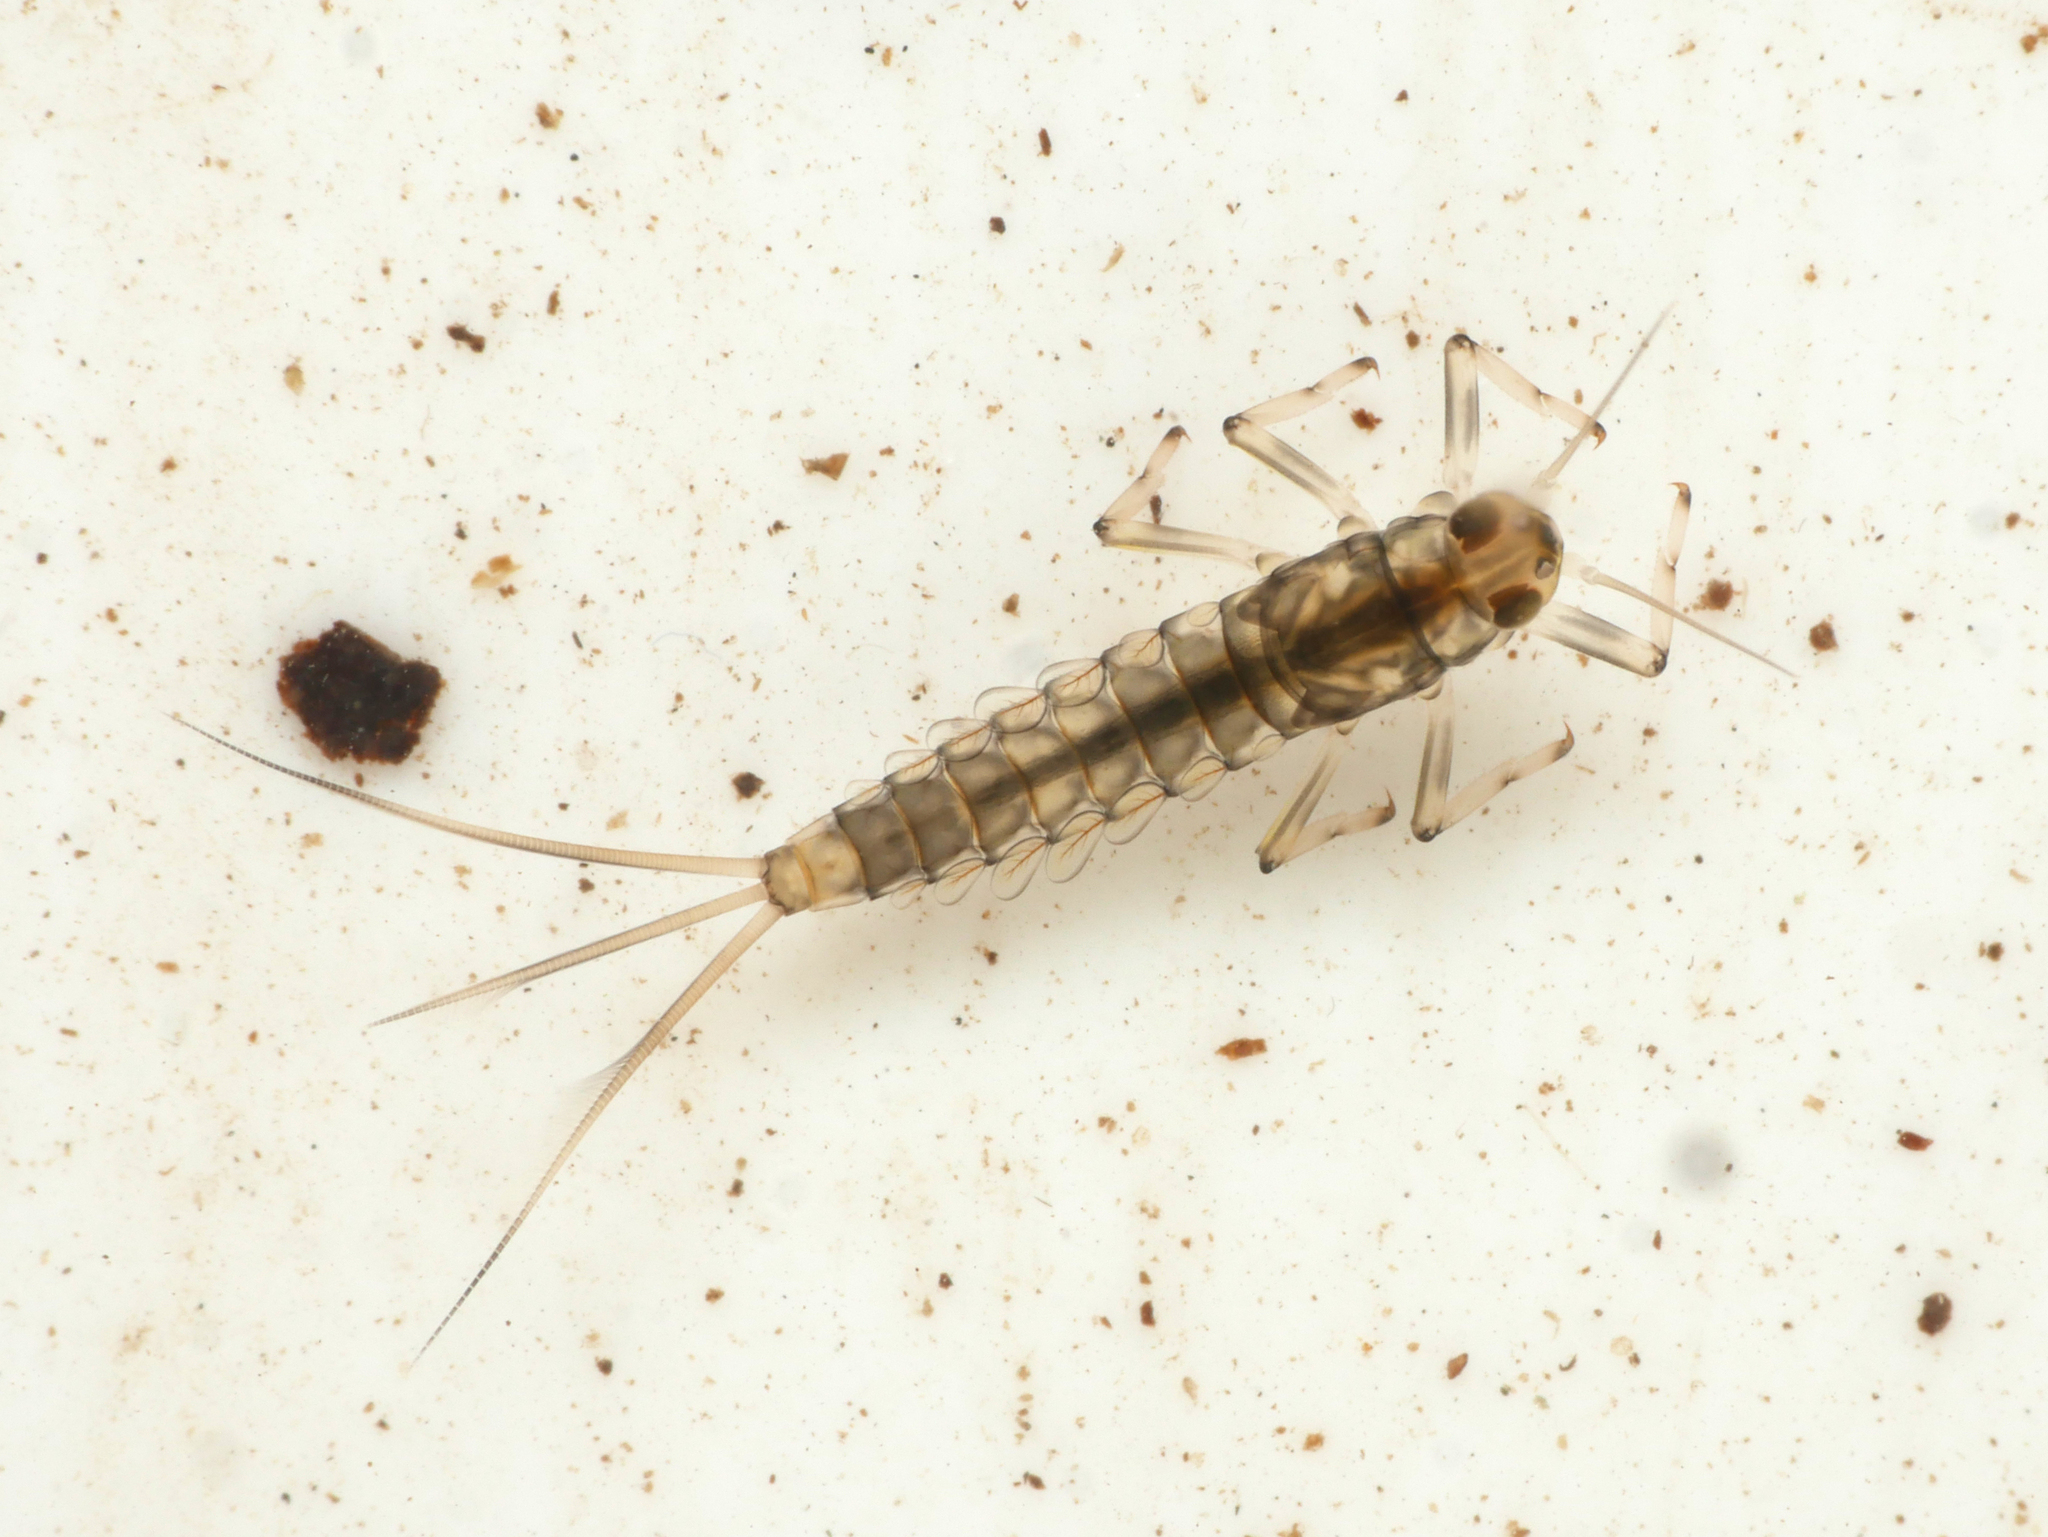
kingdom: Animalia
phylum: Arthropoda
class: Insecta
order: Ephemeroptera
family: Baetidae
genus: Baetis
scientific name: Baetis rhodani
